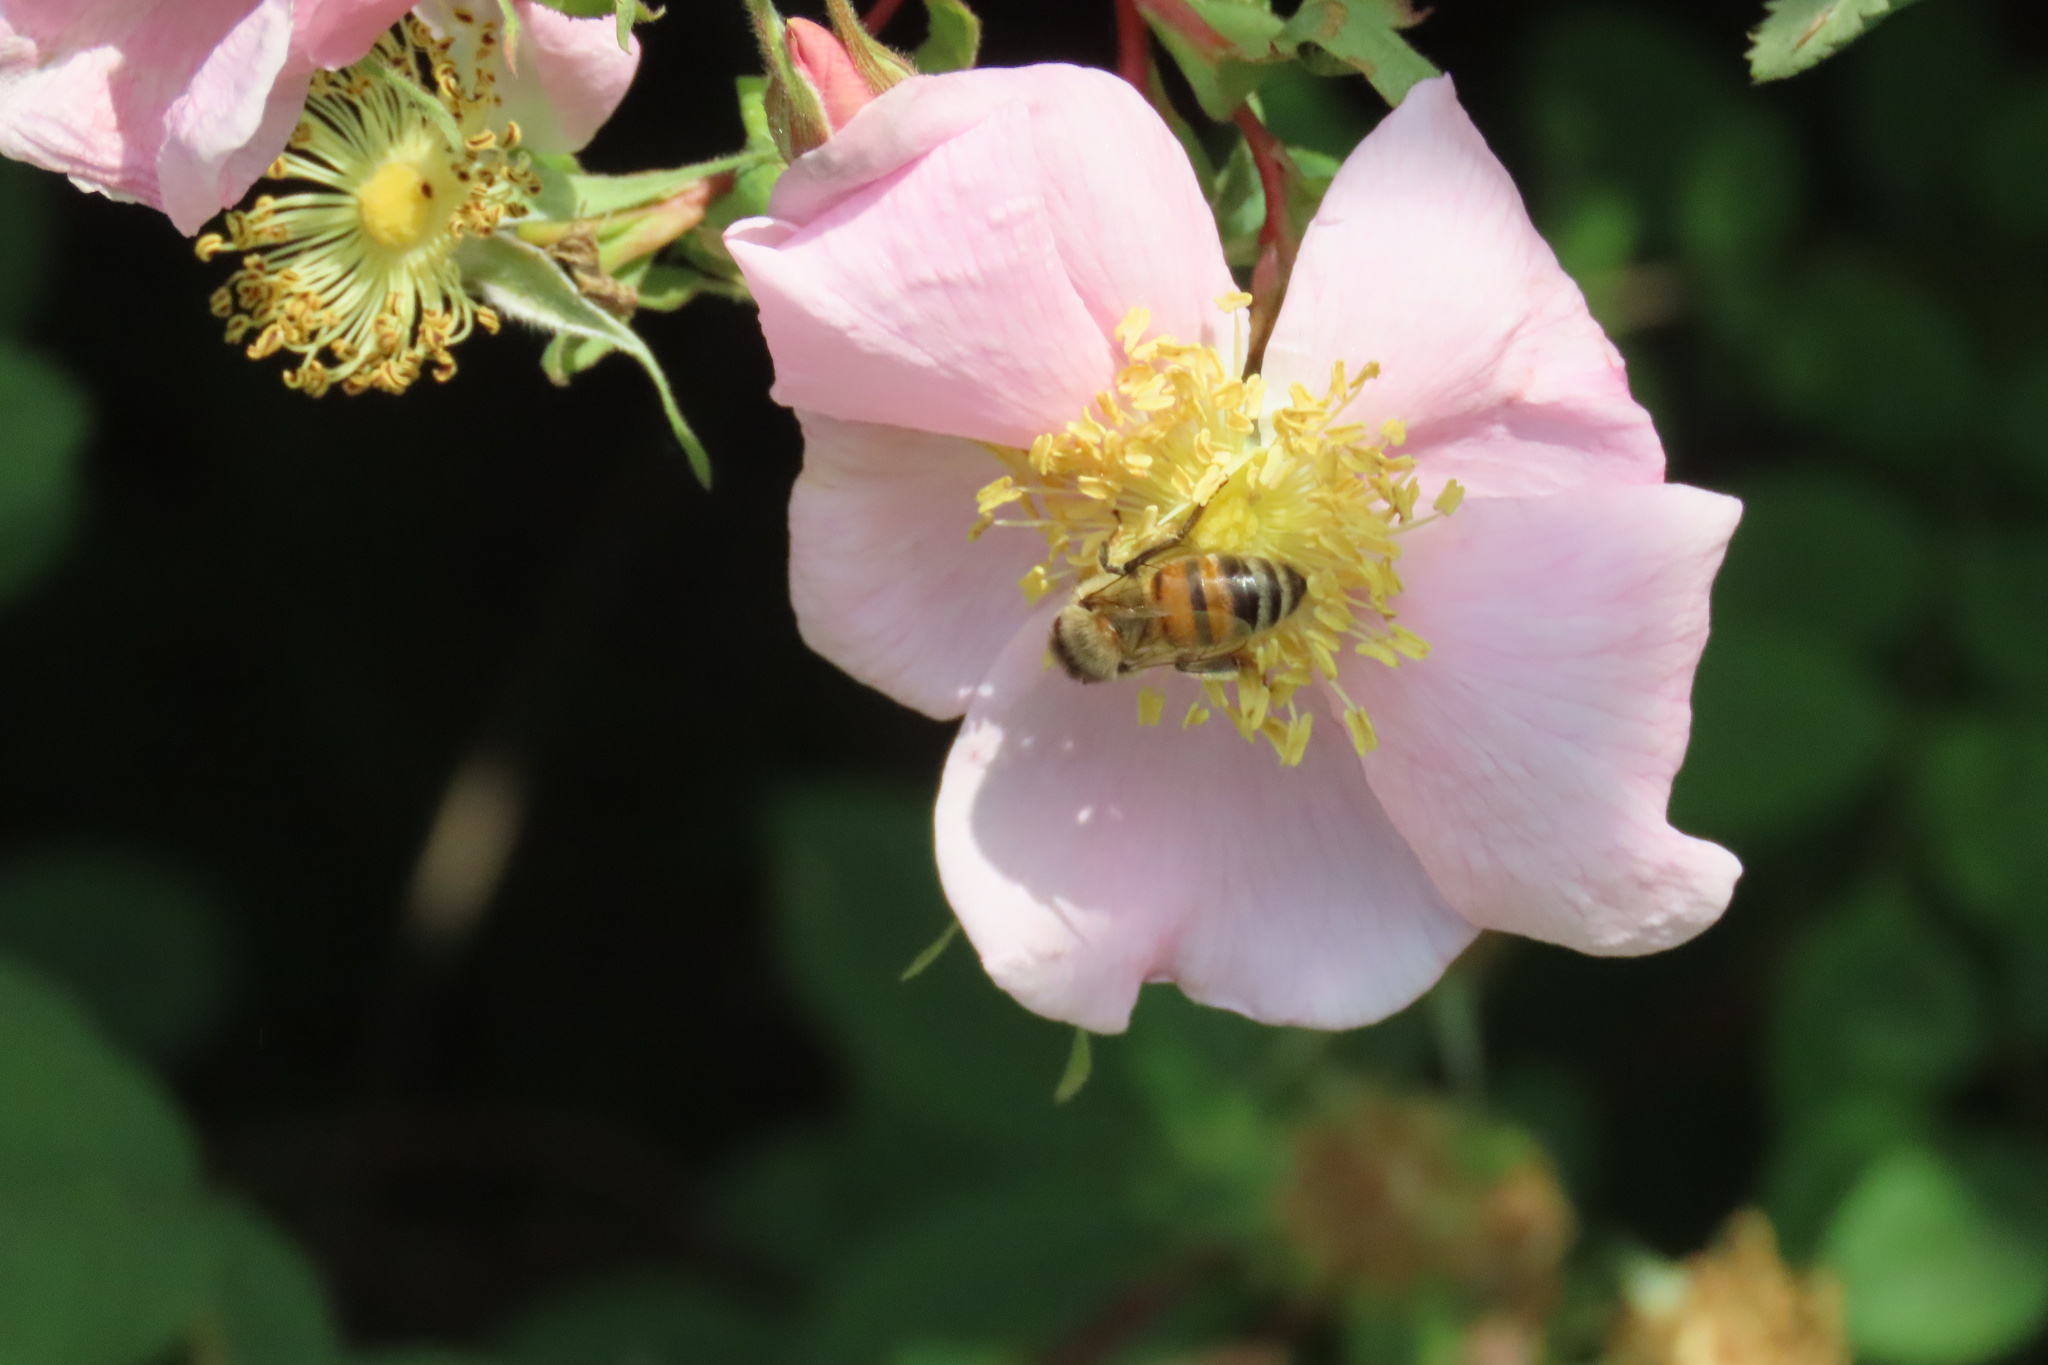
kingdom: Animalia
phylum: Arthropoda
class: Insecta
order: Hymenoptera
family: Apidae
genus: Apis
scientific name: Apis mellifera
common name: Honey bee
